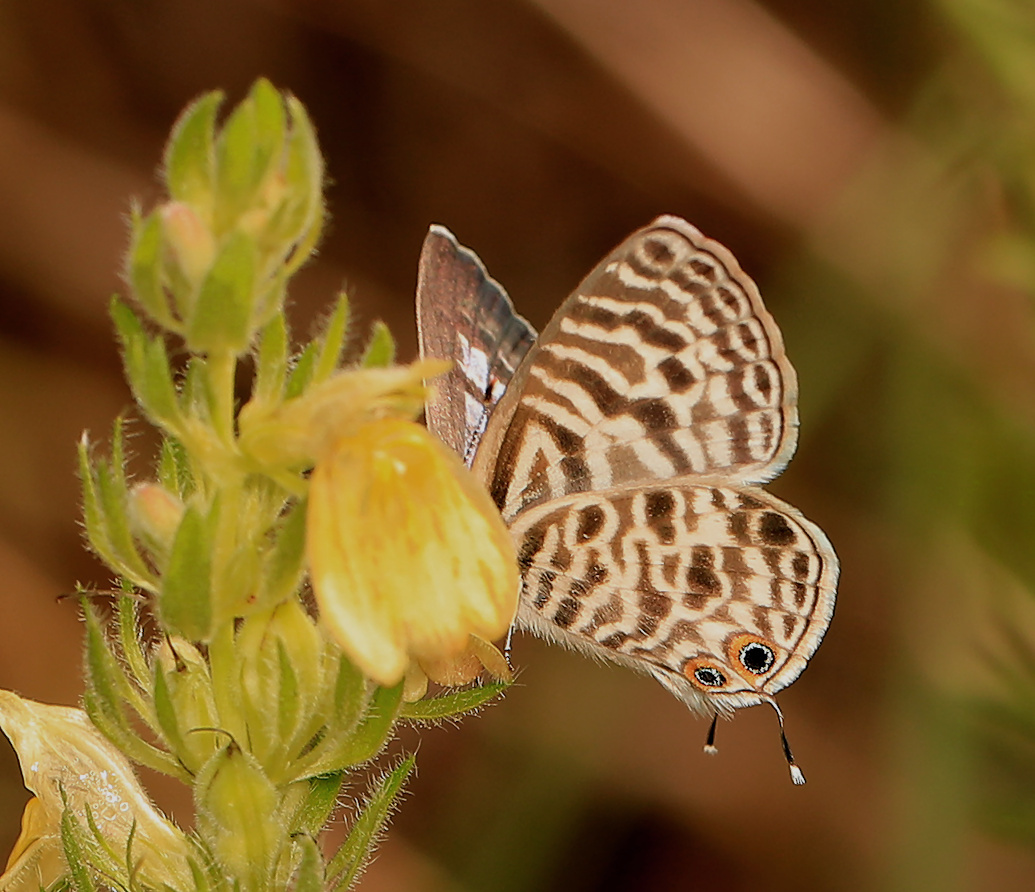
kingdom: Animalia
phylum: Arthropoda
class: Insecta
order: Lepidoptera
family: Lycaenidae
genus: Leptotes
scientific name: Leptotes
